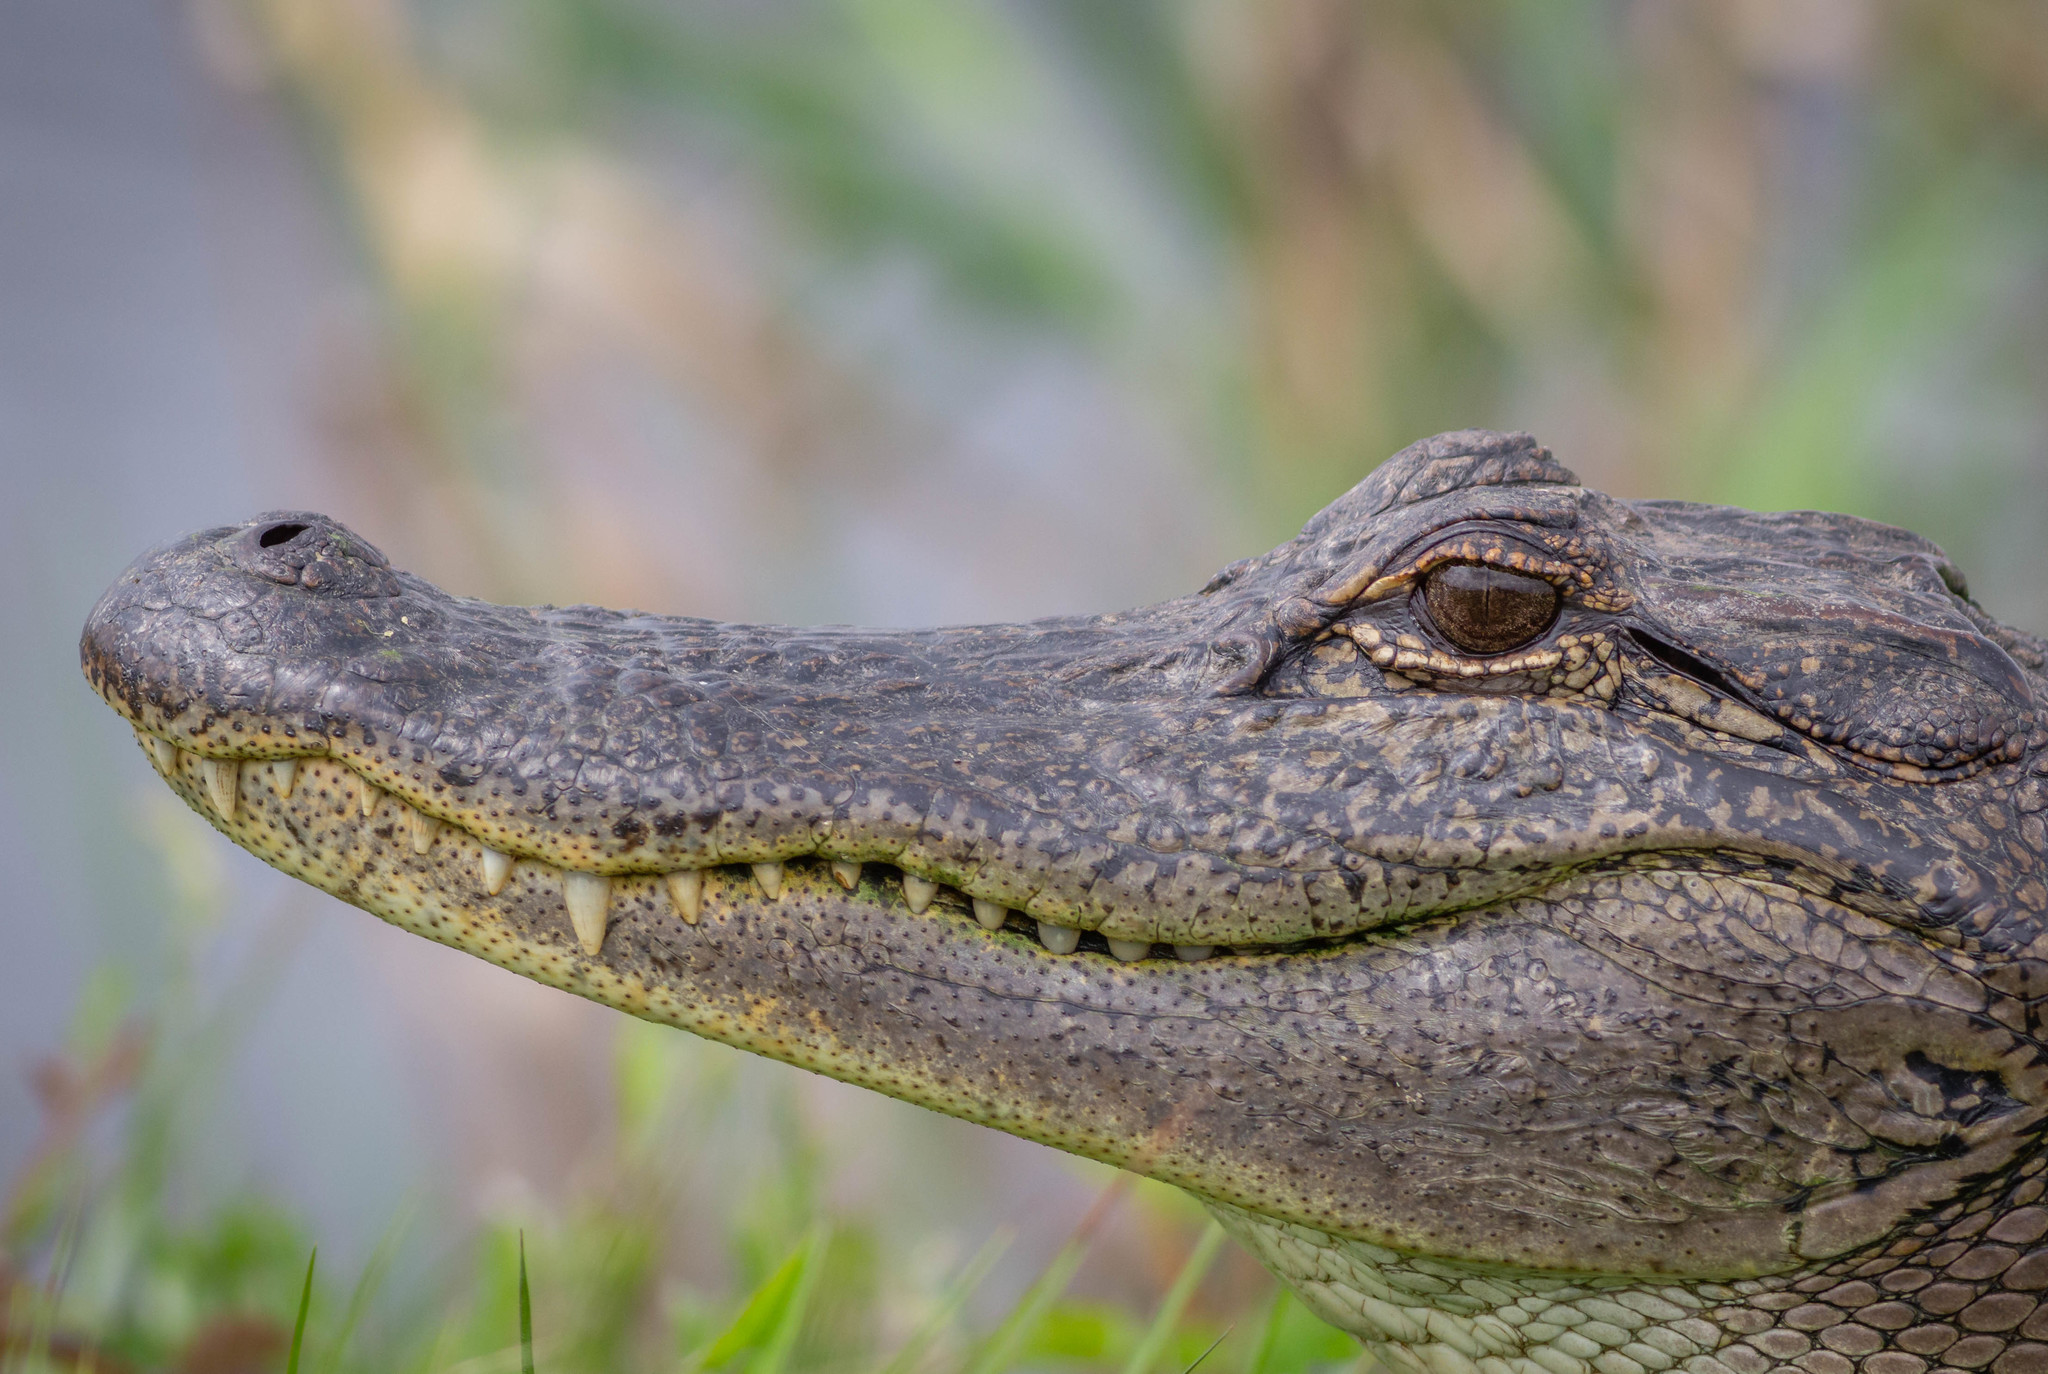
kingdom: Animalia
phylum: Chordata
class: Crocodylia
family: Alligatoridae
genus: Alligator
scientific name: Alligator mississippiensis
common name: American alligator
